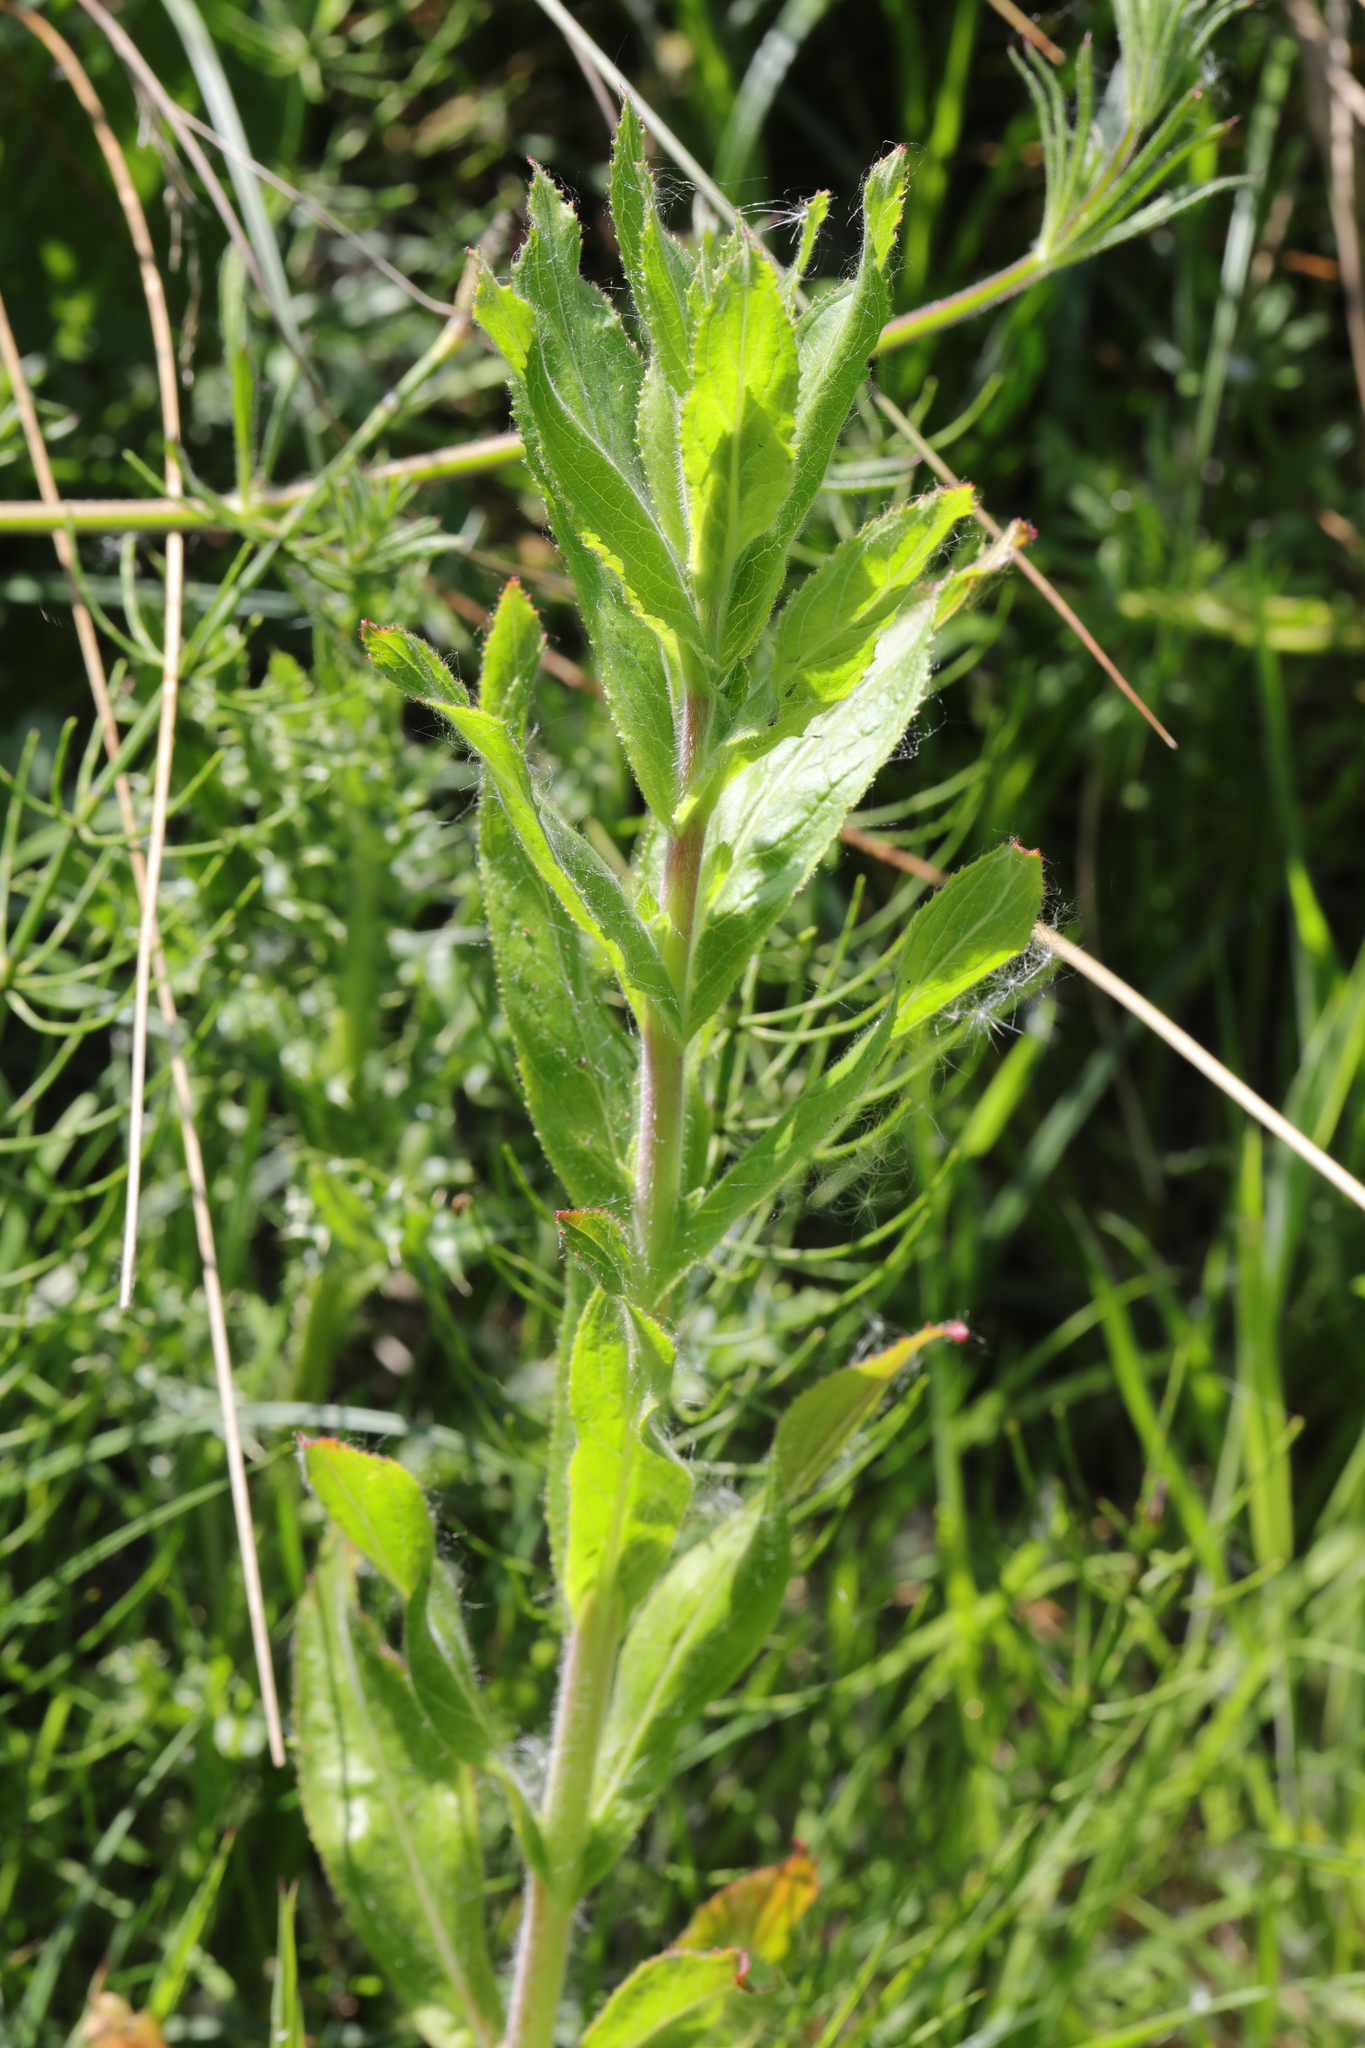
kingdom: Plantae
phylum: Tracheophyta
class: Magnoliopsida
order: Myrtales
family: Onagraceae
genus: Epilobium
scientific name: Epilobium hirsutum
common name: Great willowherb
